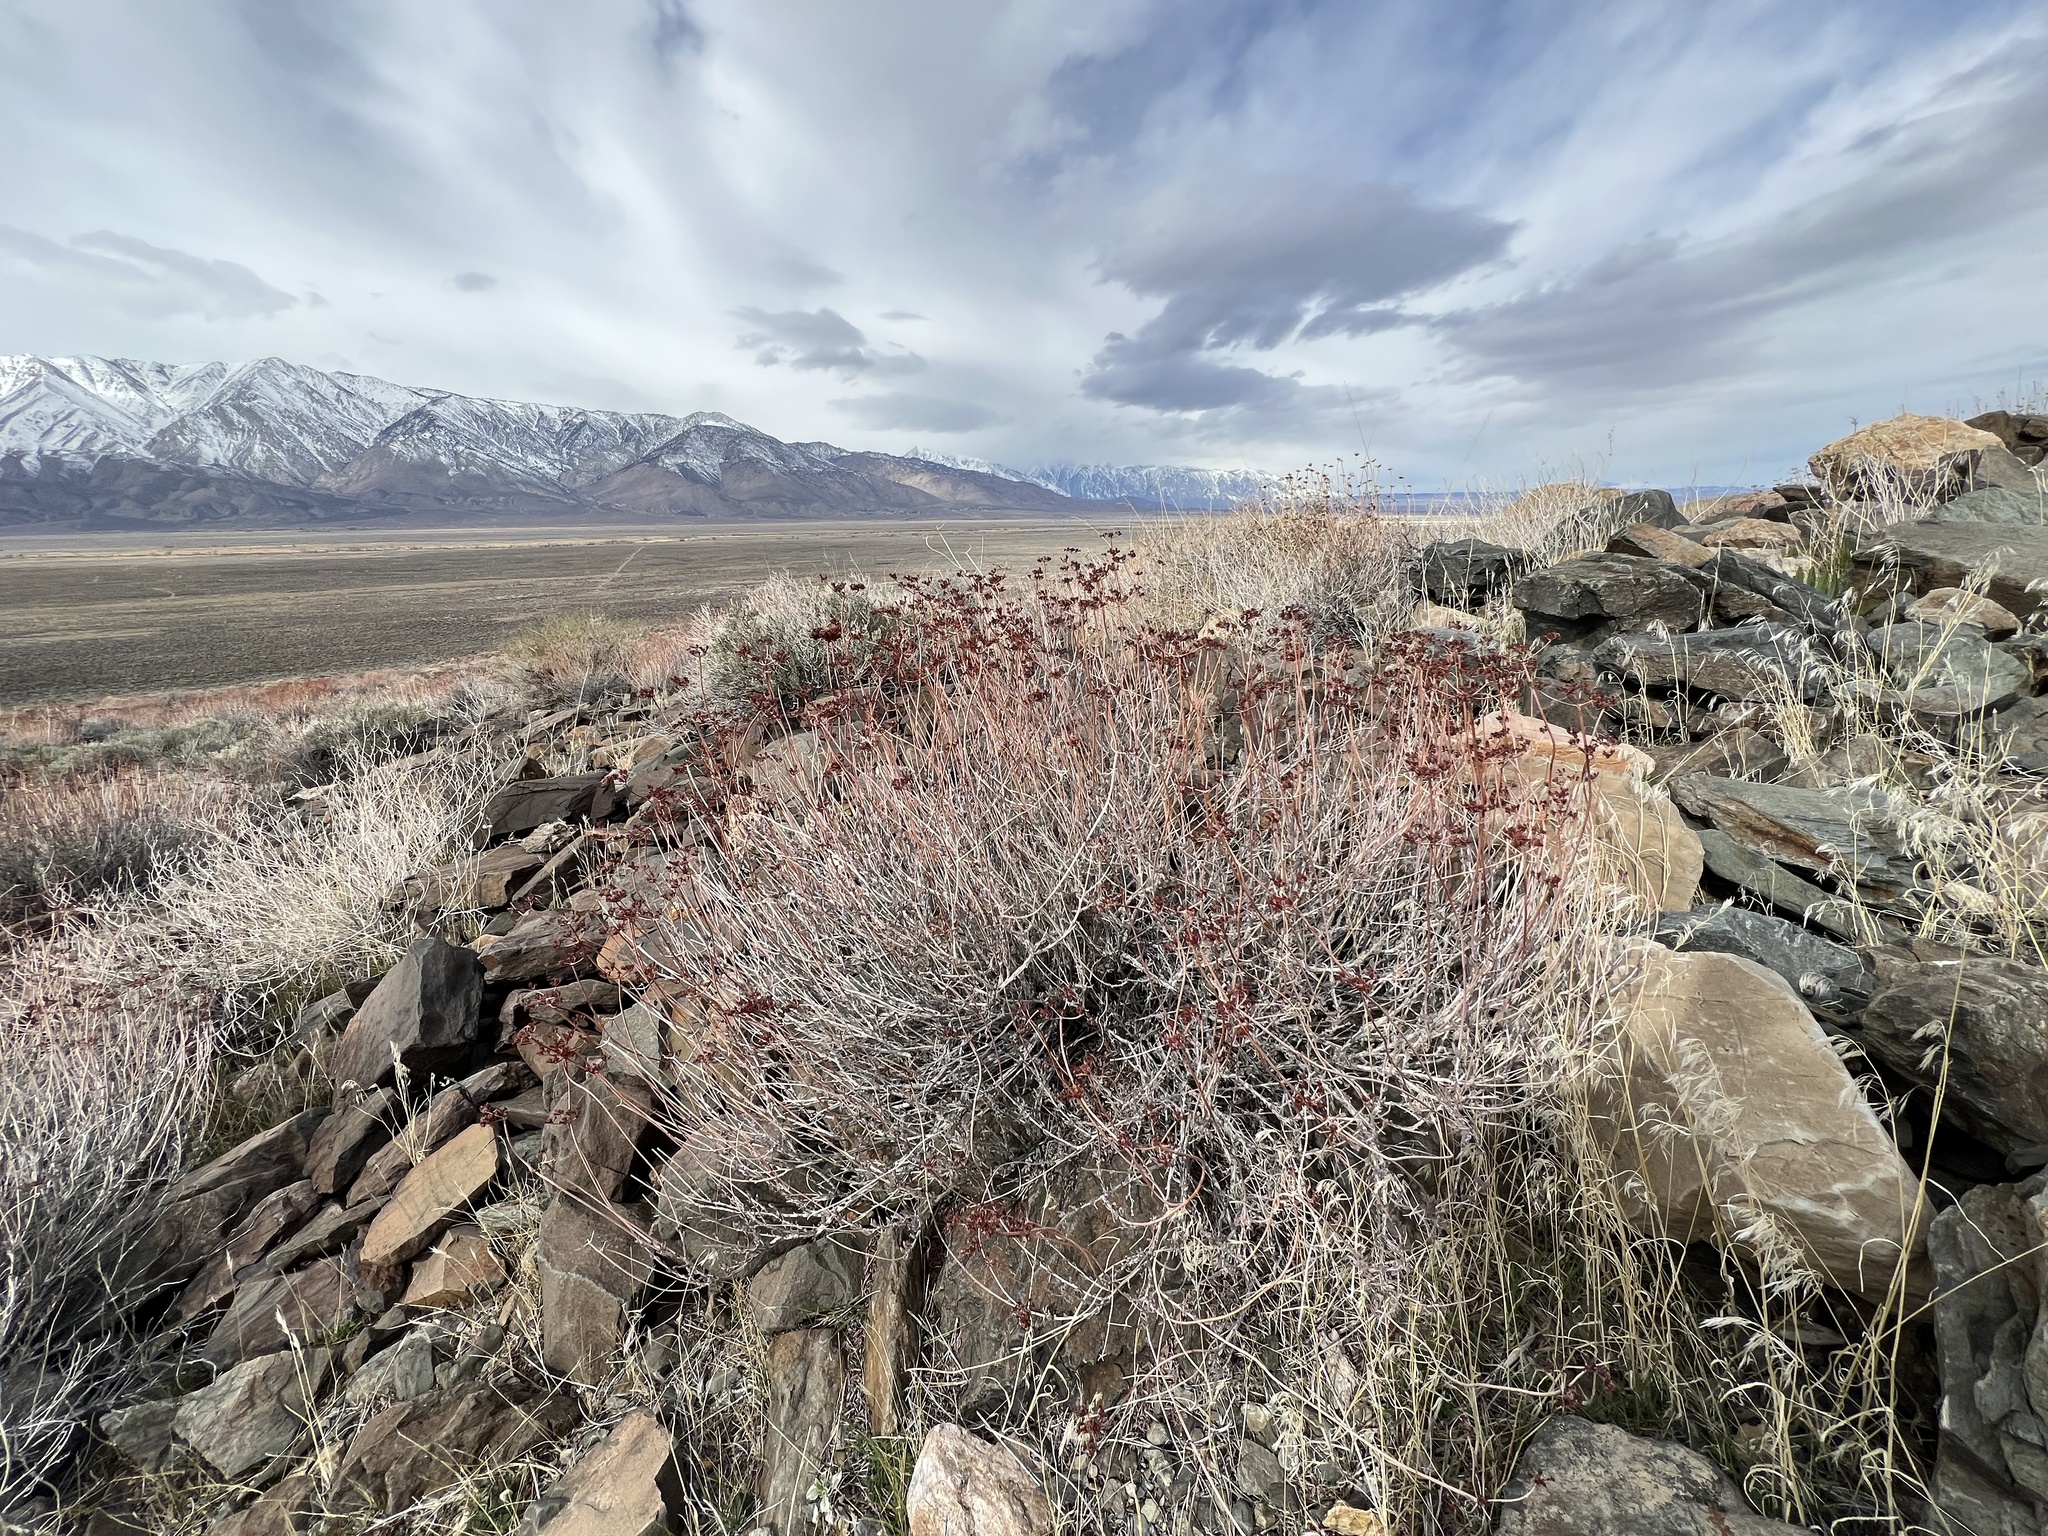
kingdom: Plantae
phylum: Tracheophyta
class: Magnoliopsida
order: Caryophyllales
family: Polygonaceae
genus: Eriogonum
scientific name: Eriogonum fasciculatum
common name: California wild buckwheat
